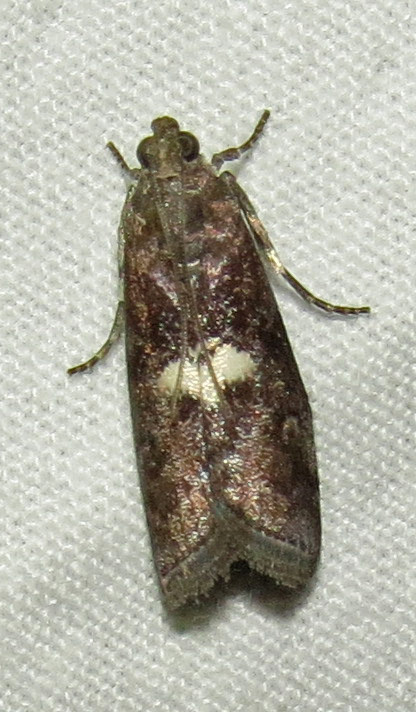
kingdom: Animalia
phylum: Arthropoda
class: Insecta
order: Lepidoptera
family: Pyralidae
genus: Salebriaria
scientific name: Salebriaria engeli
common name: Engel's salebriaria moth
